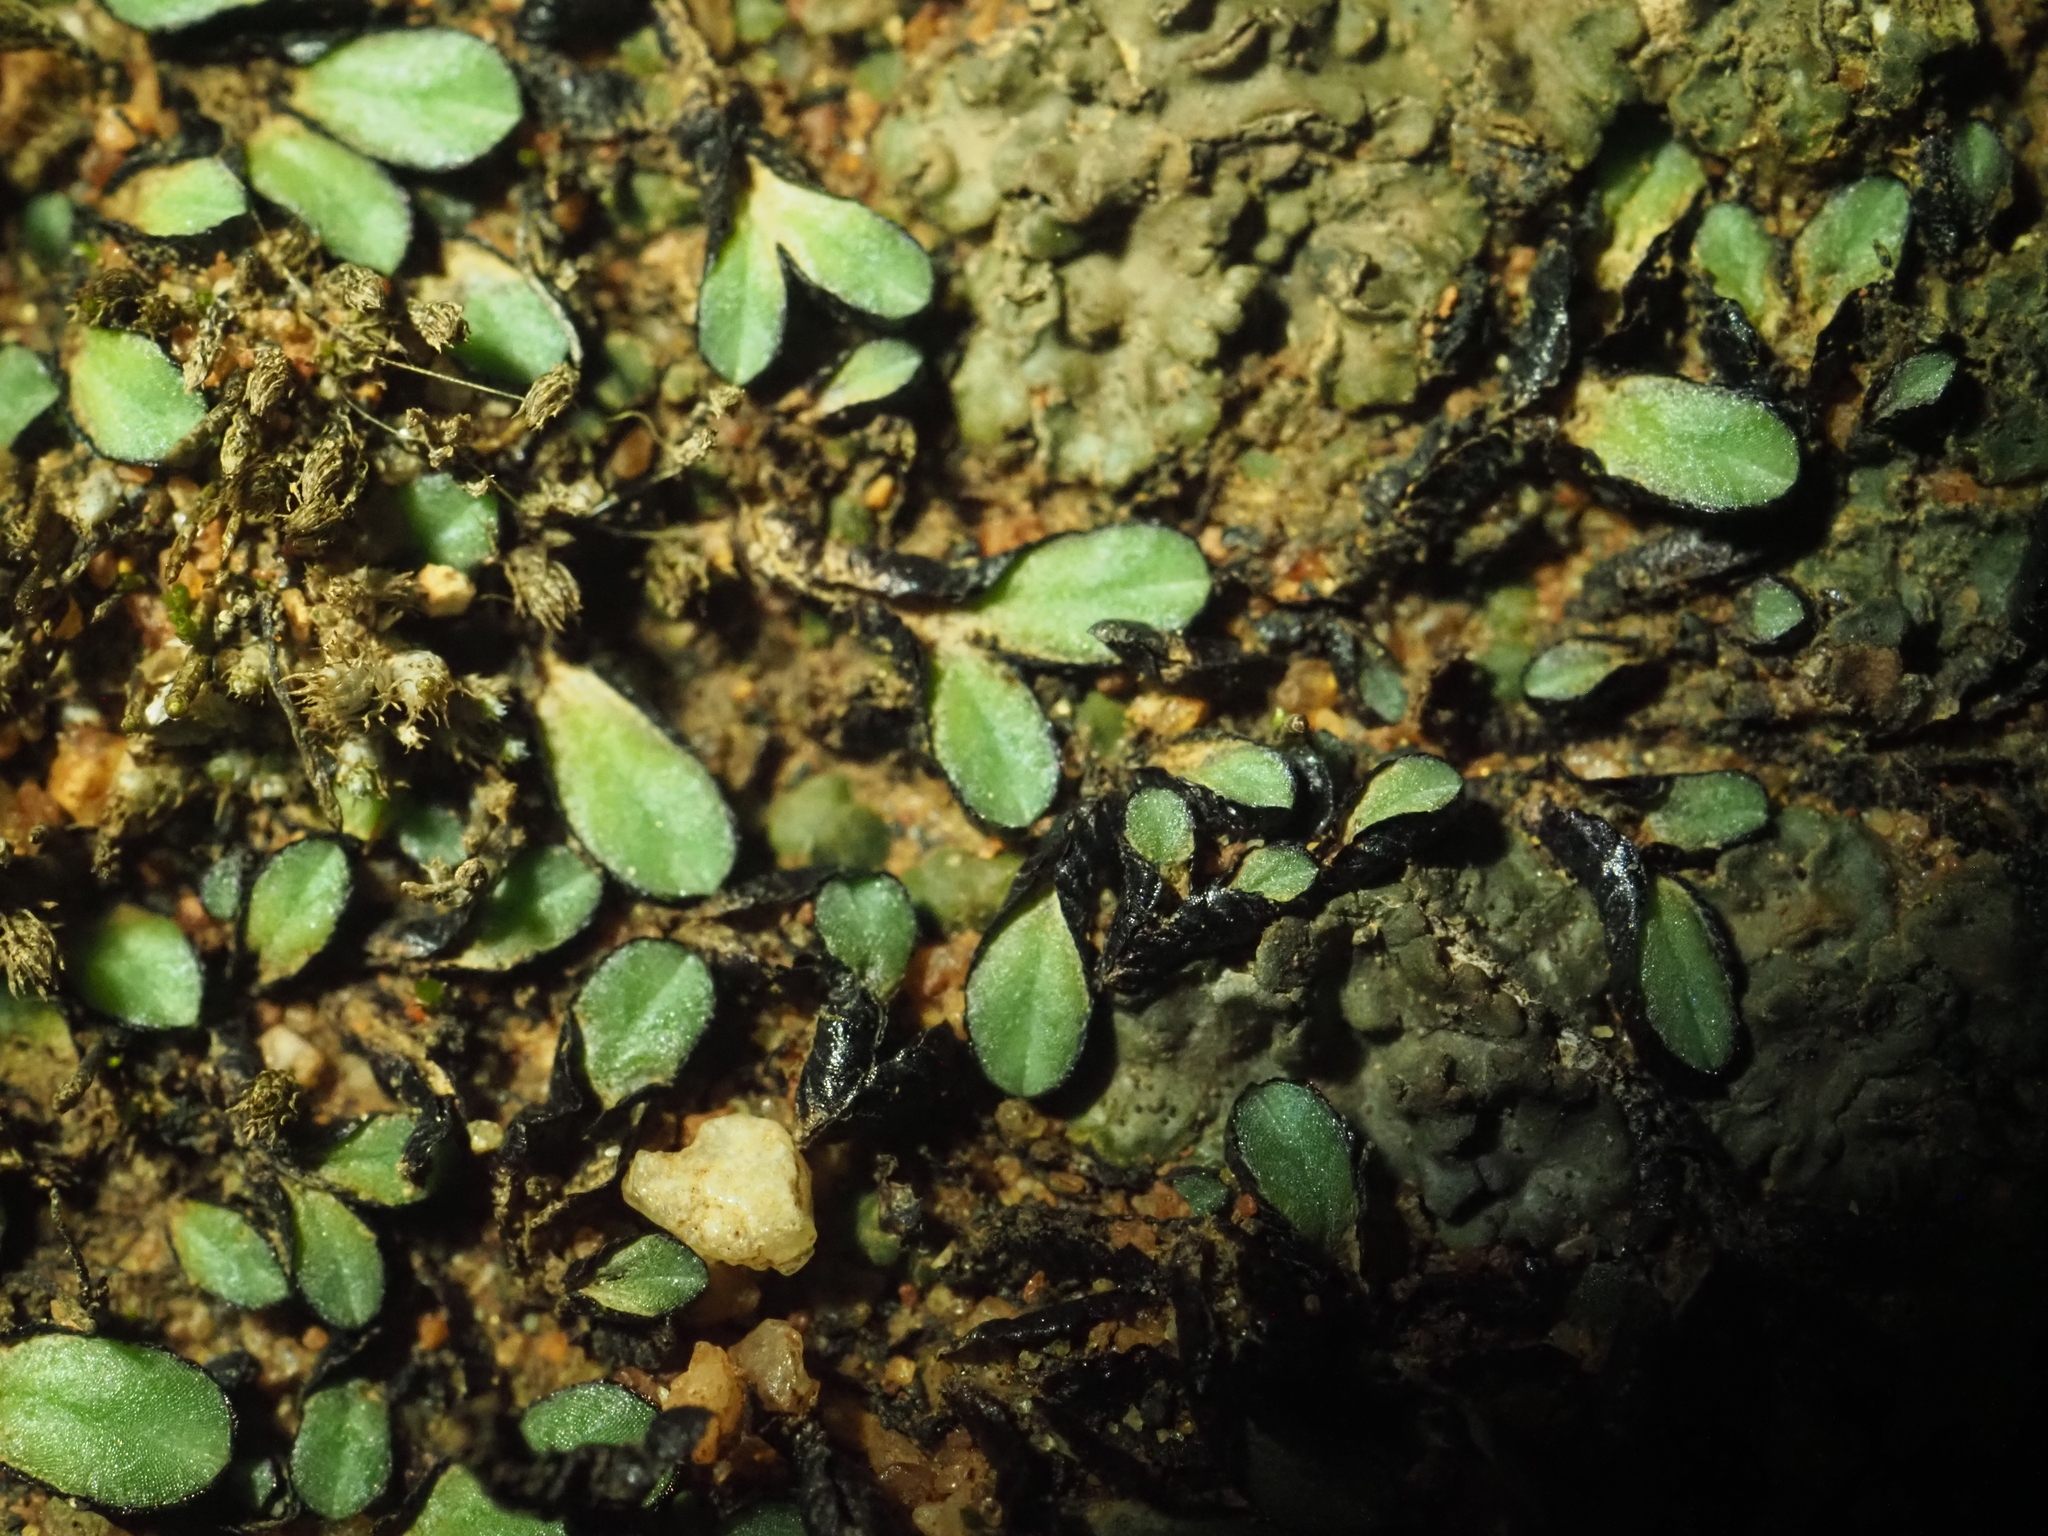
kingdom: Plantae
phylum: Marchantiophyta
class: Marchantiopsida
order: Marchantiales
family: Ricciaceae
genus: Riccia
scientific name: Riccia inflexa
